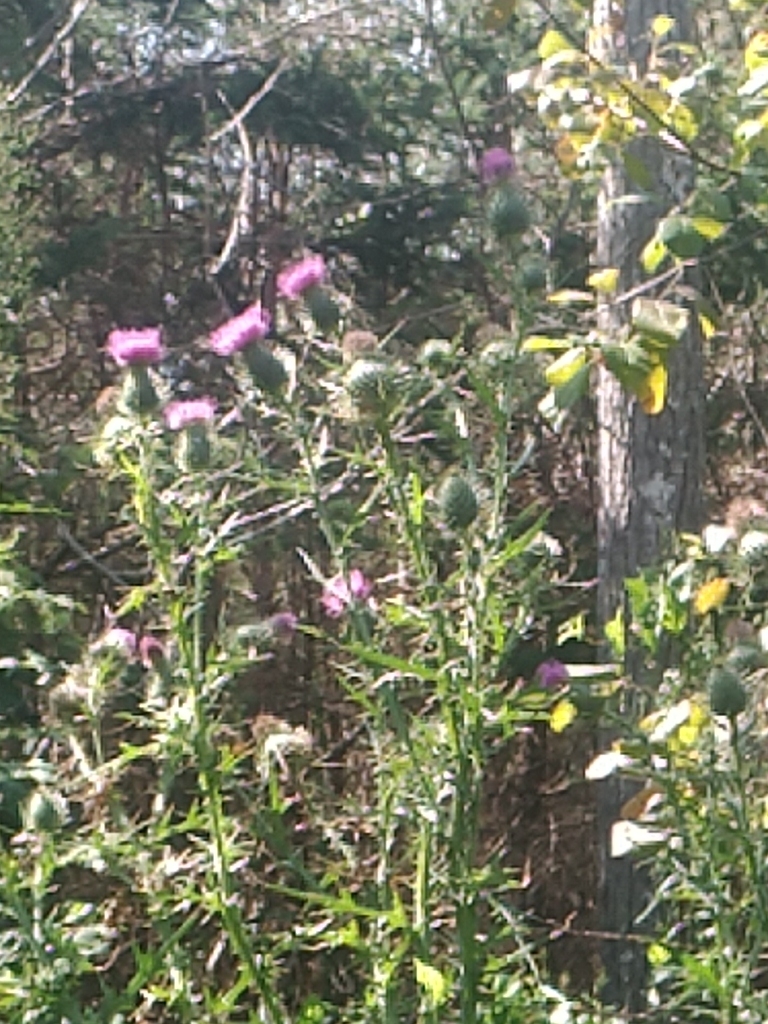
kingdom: Plantae
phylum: Tracheophyta
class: Magnoliopsida
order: Asterales
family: Asteraceae
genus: Cirsium
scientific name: Cirsium vulgare
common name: Bull thistle
